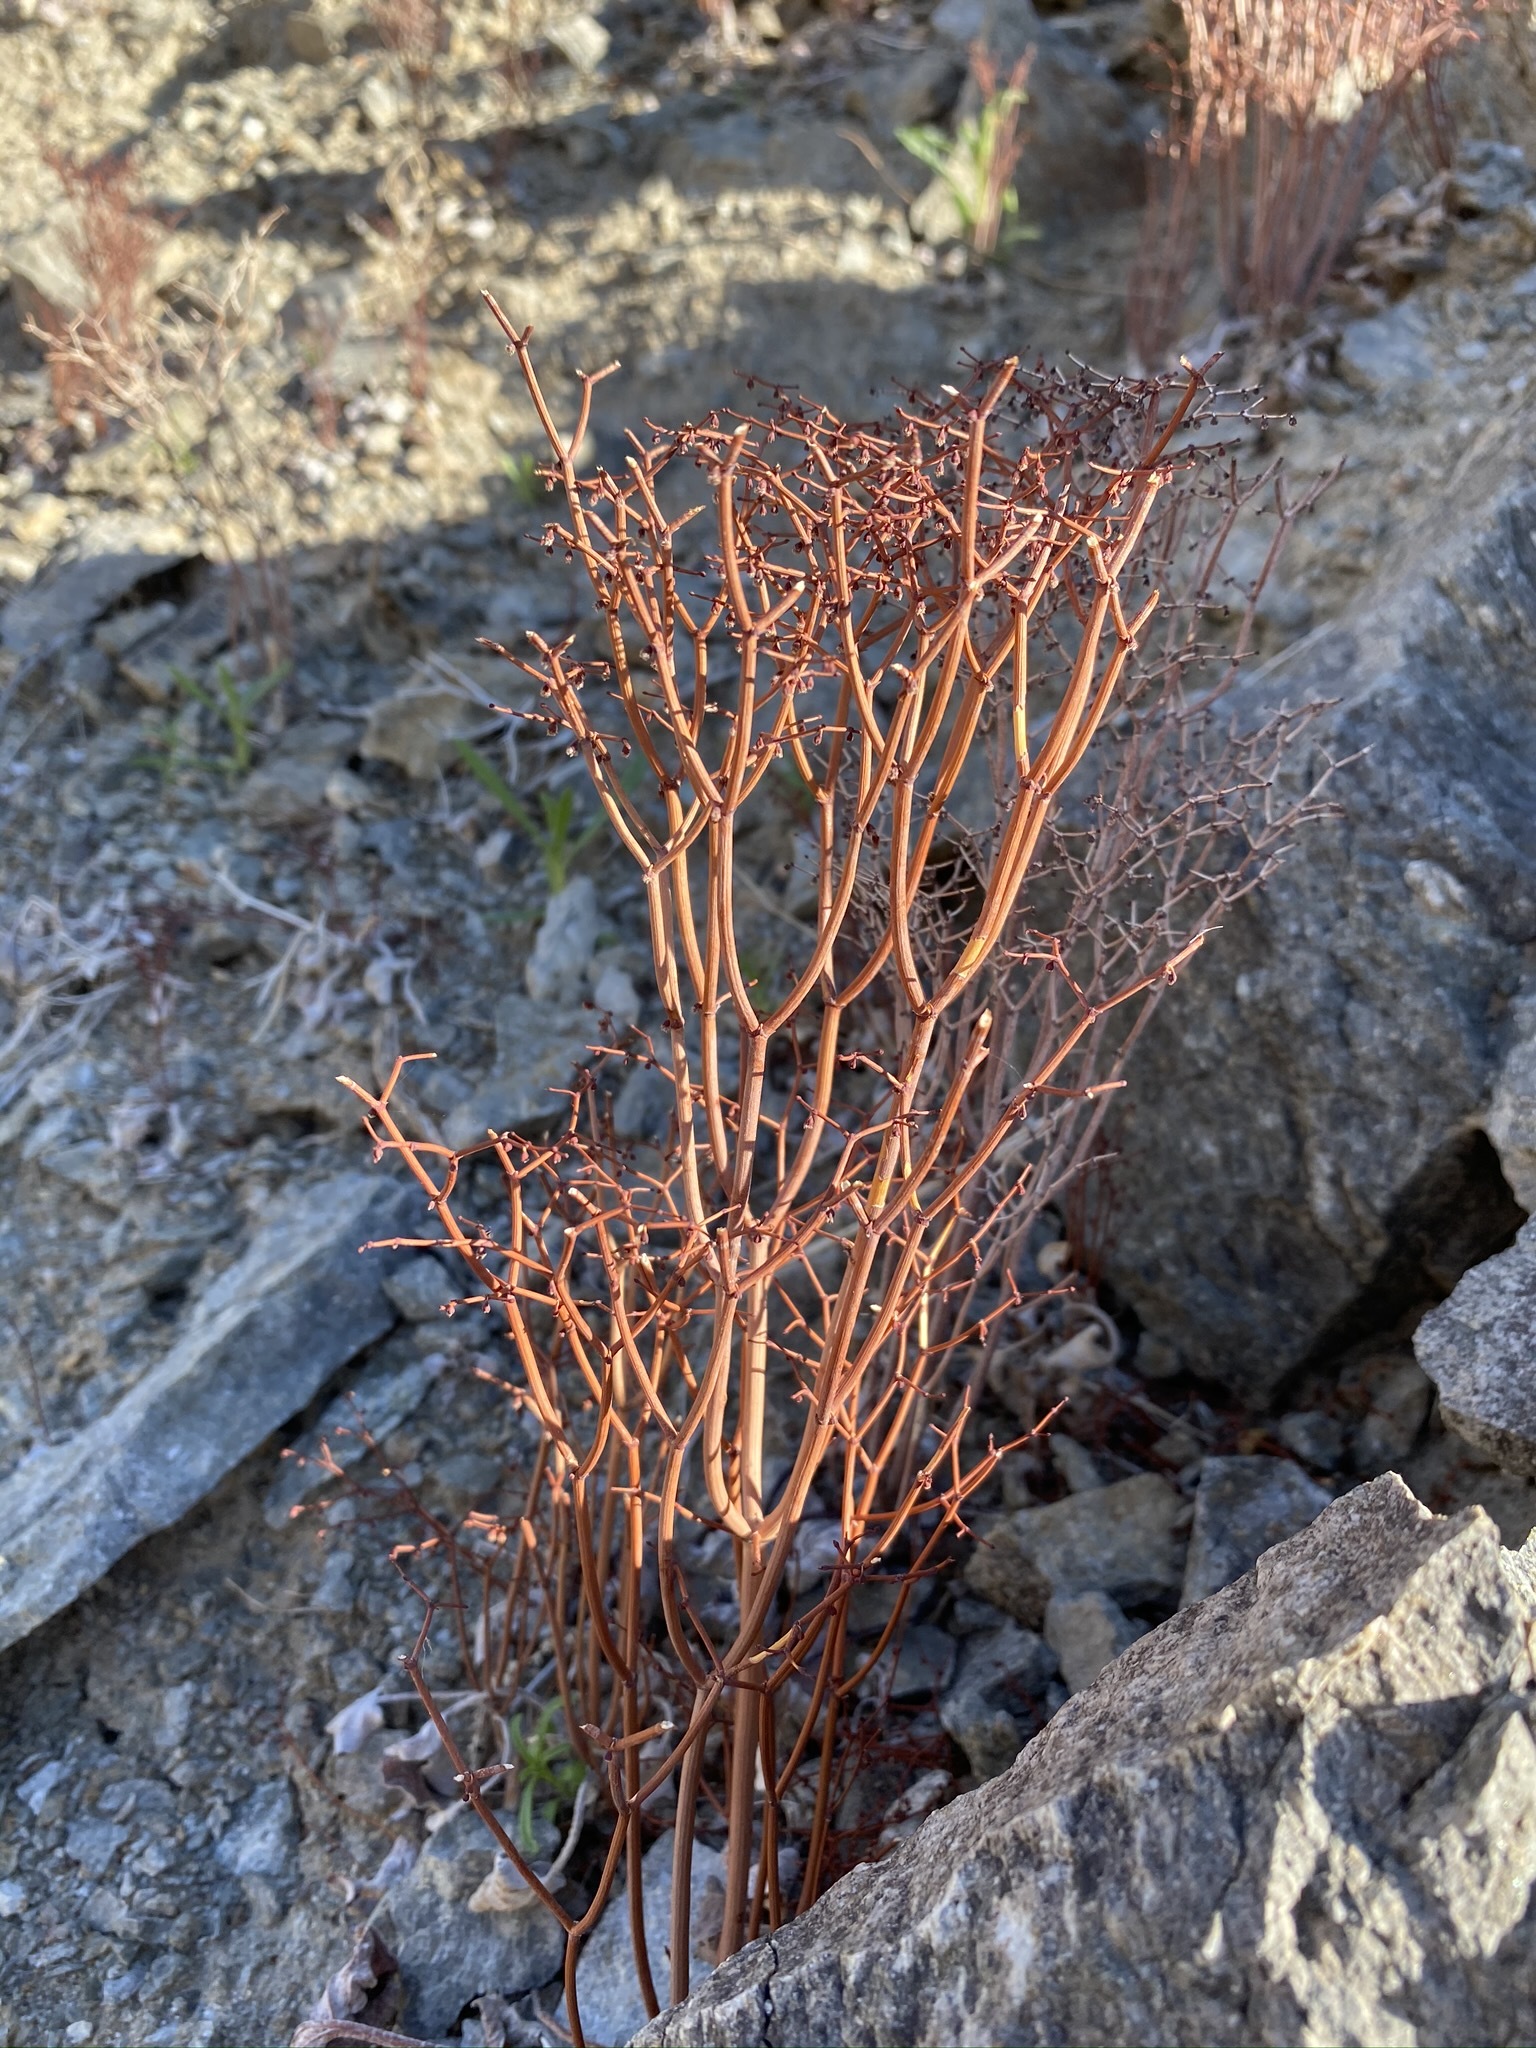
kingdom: Plantae
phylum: Tracheophyta
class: Magnoliopsida
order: Caryophyllales
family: Polygonaceae
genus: Eriogonum
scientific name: Eriogonum rixfordii
